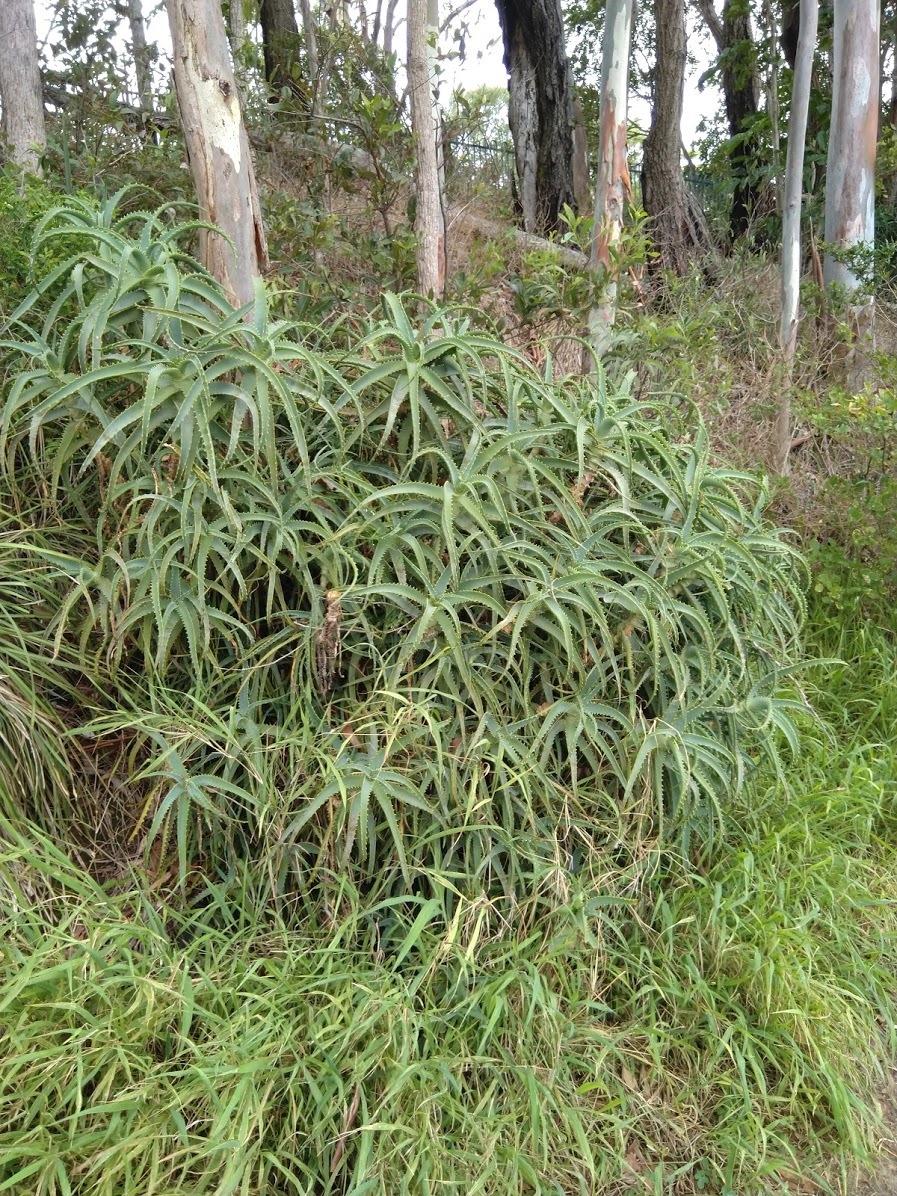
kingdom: Plantae
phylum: Tracheophyta
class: Liliopsida
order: Asparagales
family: Asphodelaceae
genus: Aloe
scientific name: Aloe arborescens
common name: Candelabra aloe
